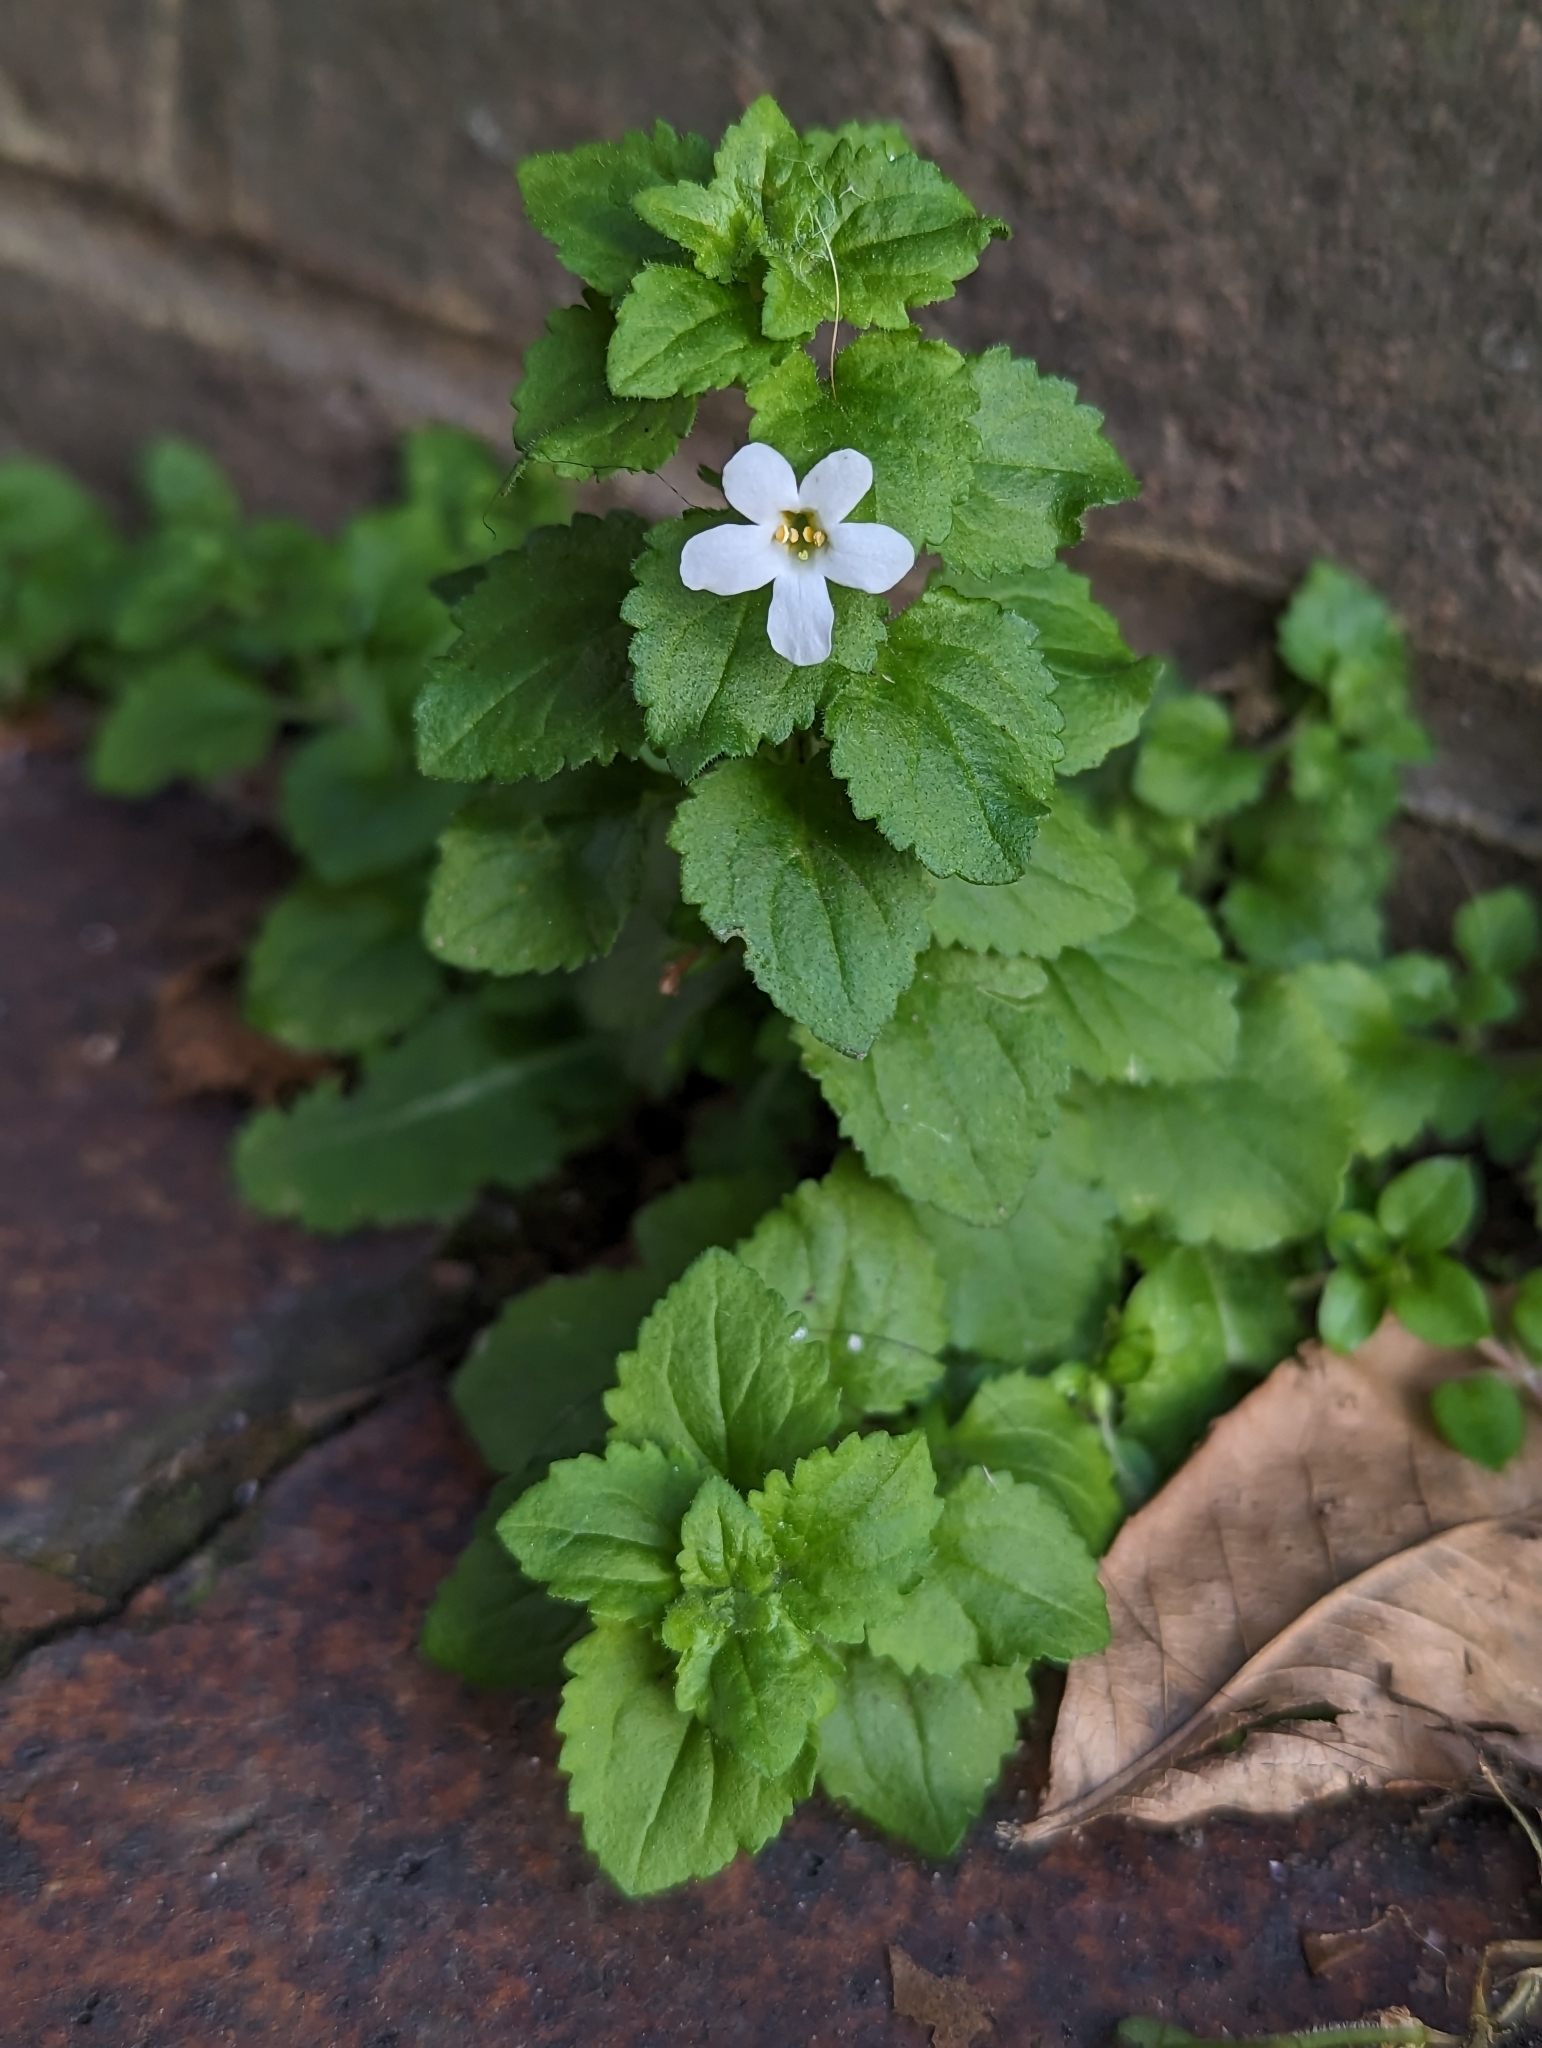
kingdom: Plantae
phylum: Tracheophyta
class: Magnoliopsida
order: Lamiales
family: Scrophulariaceae
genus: Chaenostoma
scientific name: Chaenostoma cordatum
